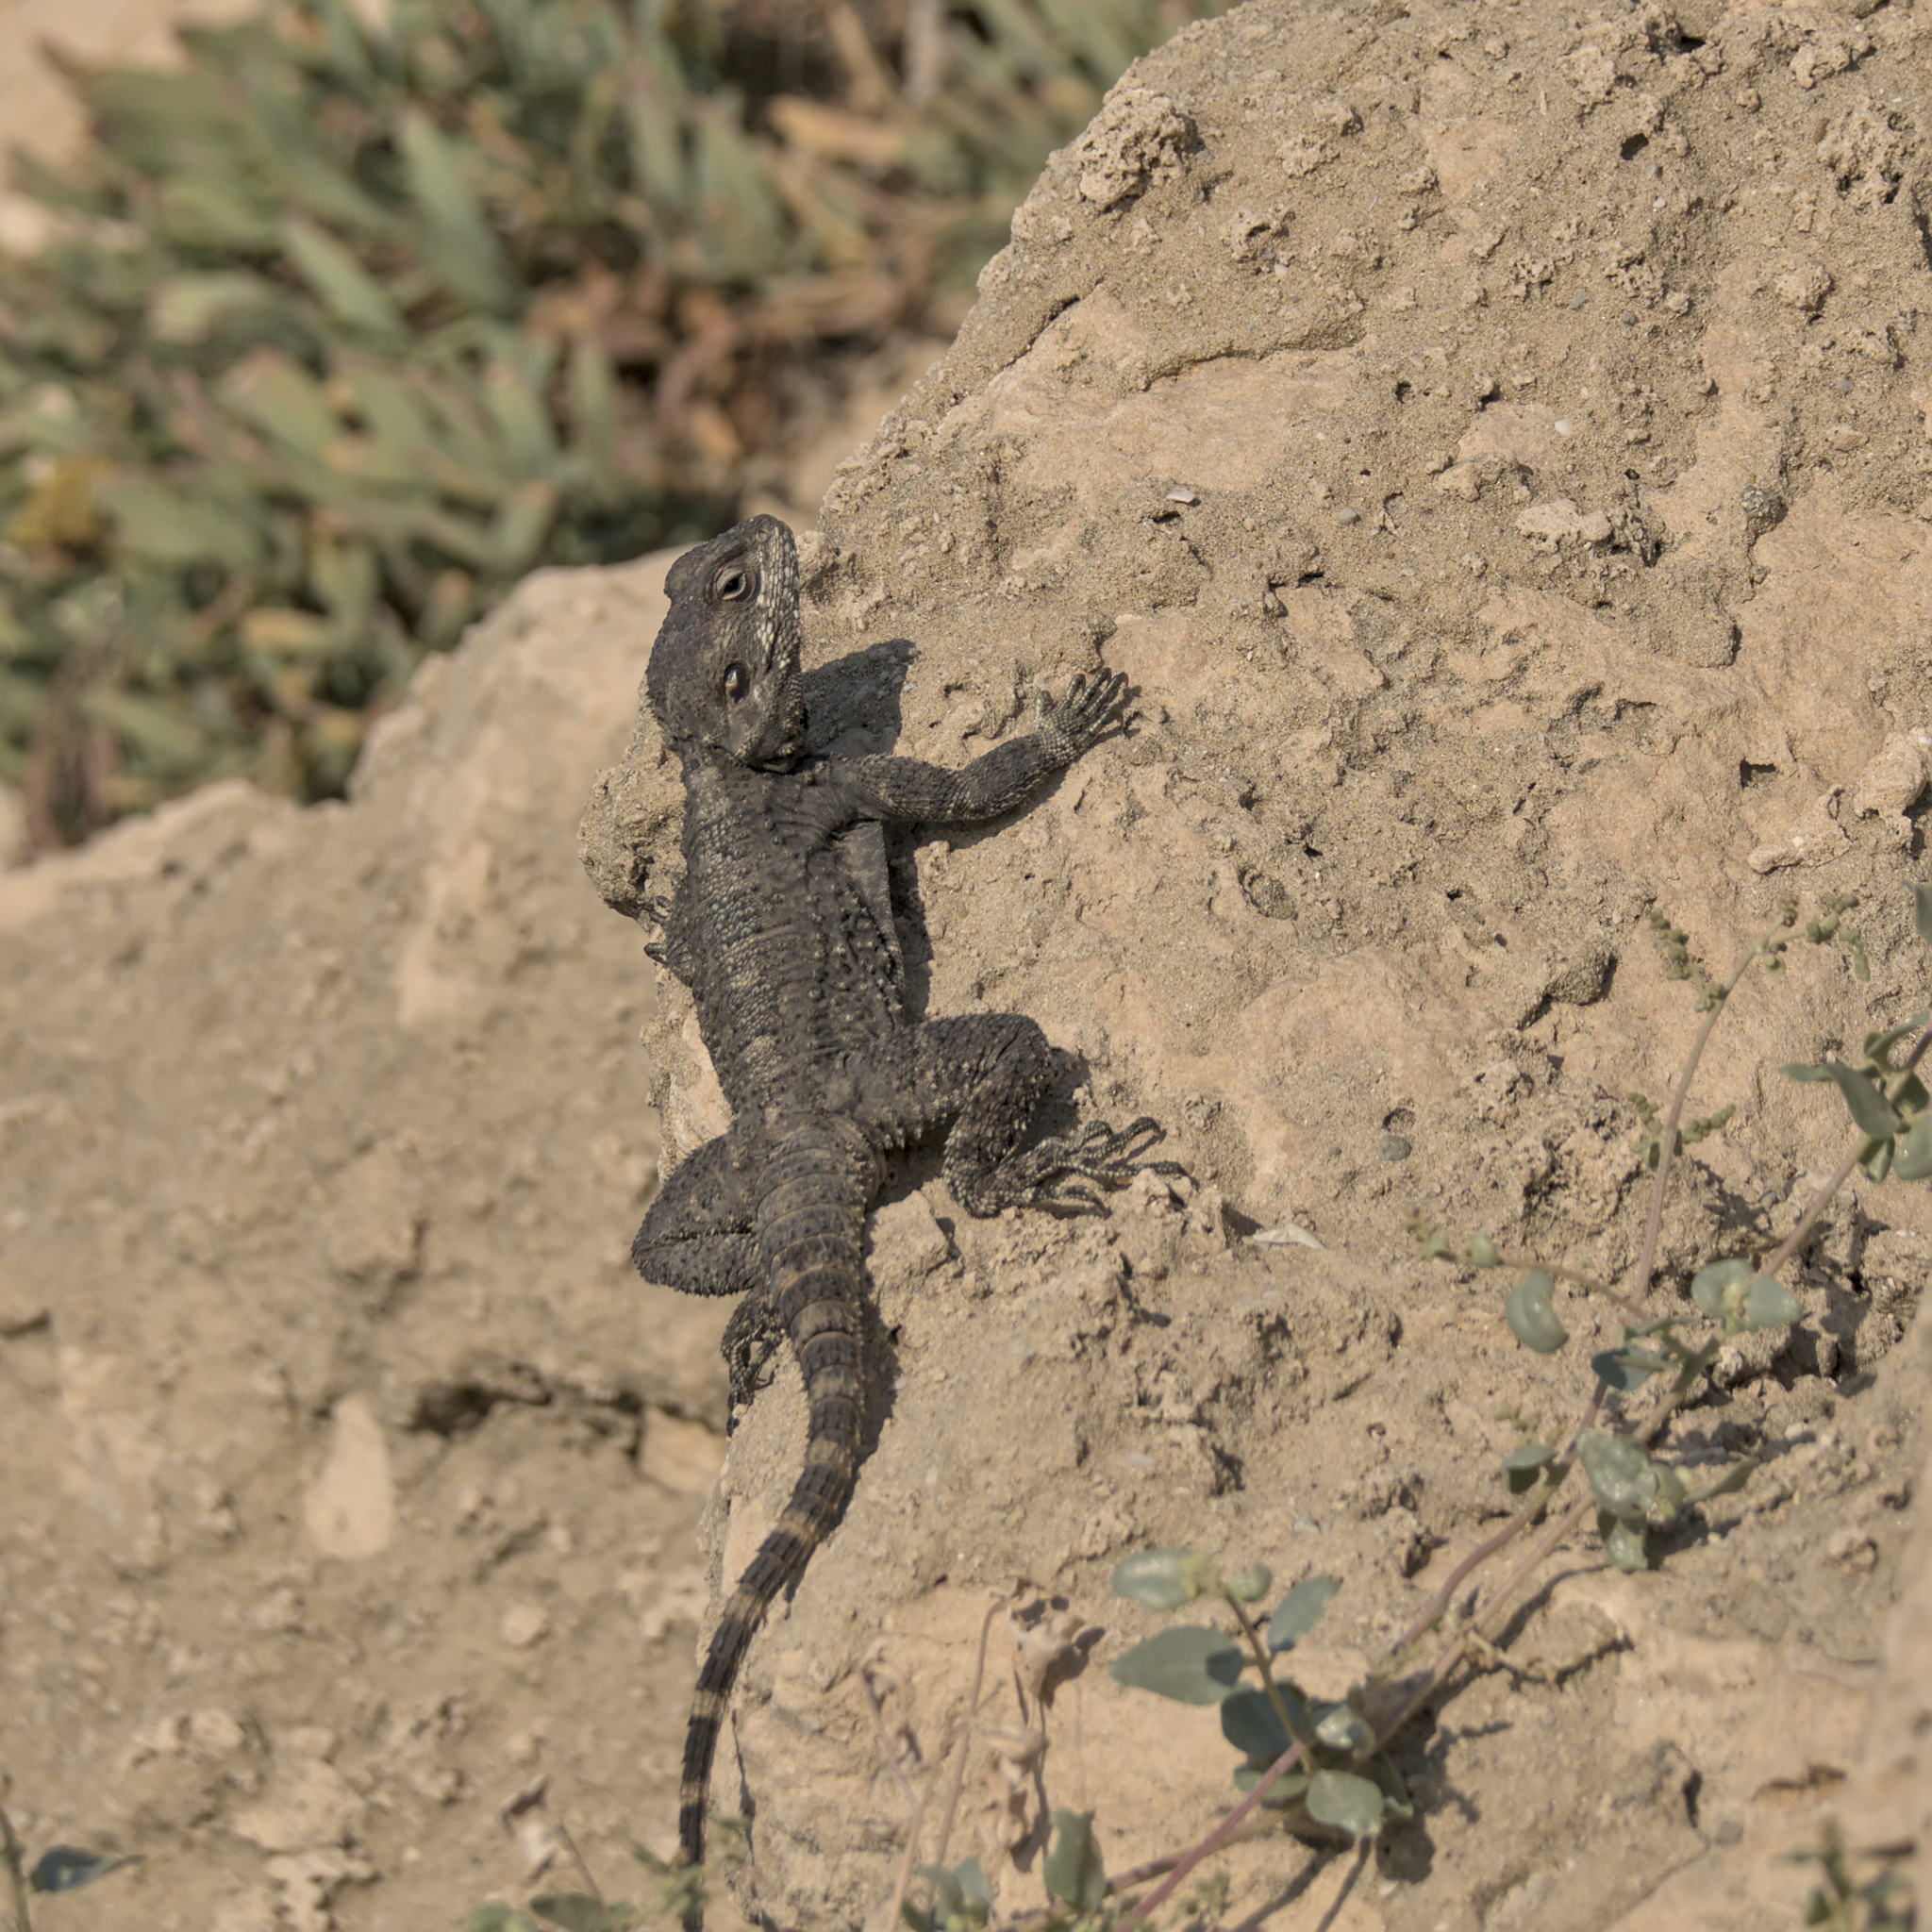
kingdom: Animalia
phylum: Chordata
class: Squamata
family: Agamidae
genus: Laudakia
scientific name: Laudakia vulgaris
